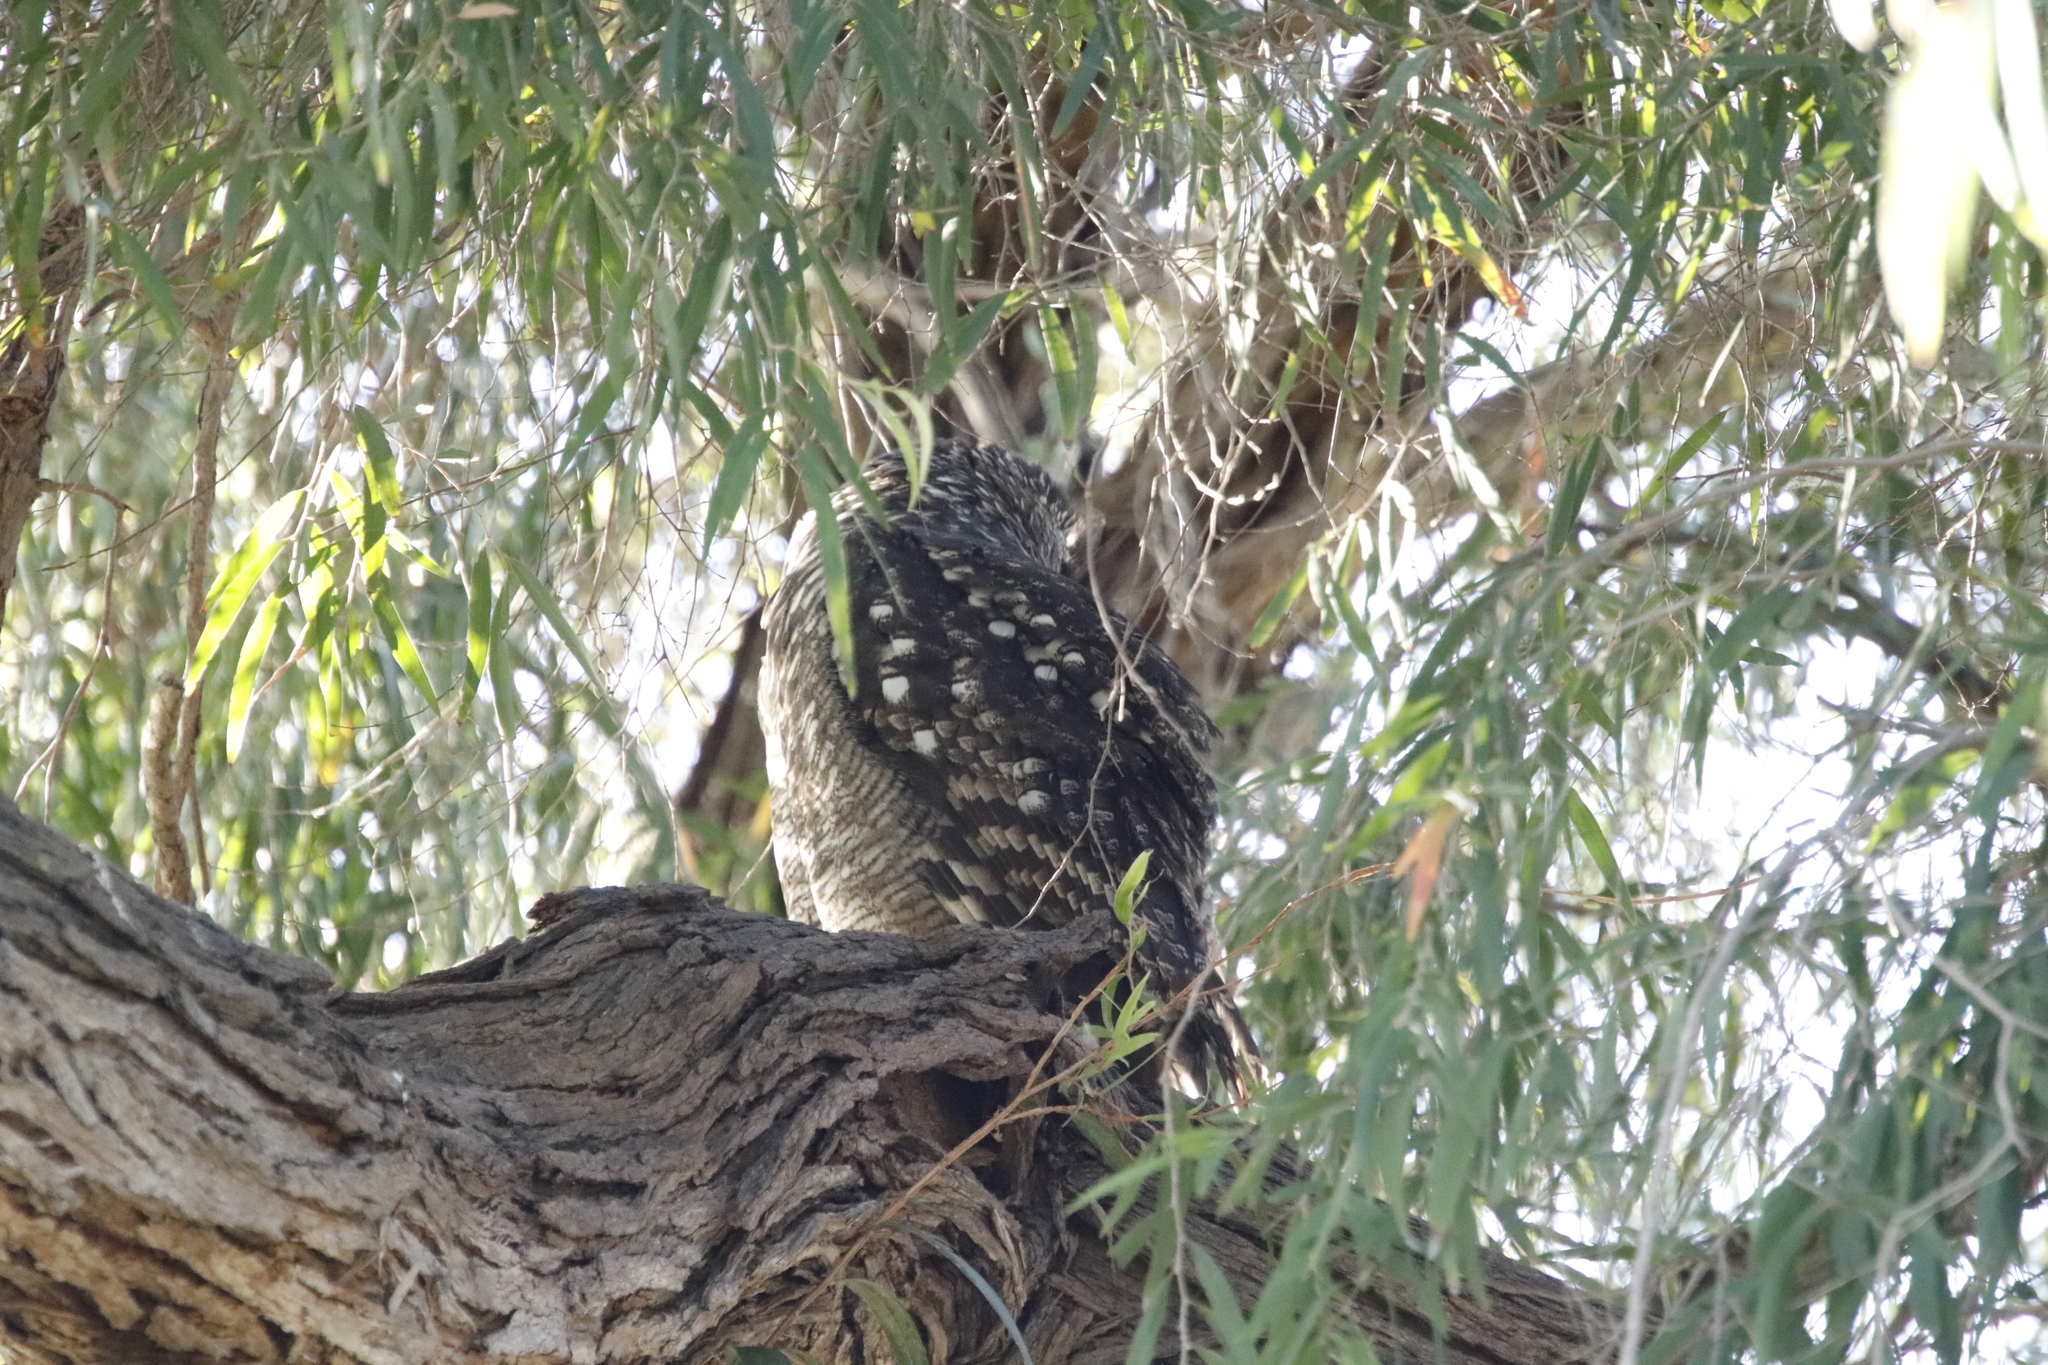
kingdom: Animalia
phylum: Chordata
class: Aves
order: Strigiformes
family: Strigidae
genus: Bubo
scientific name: Bubo africanus
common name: Spotted eagle-owl
